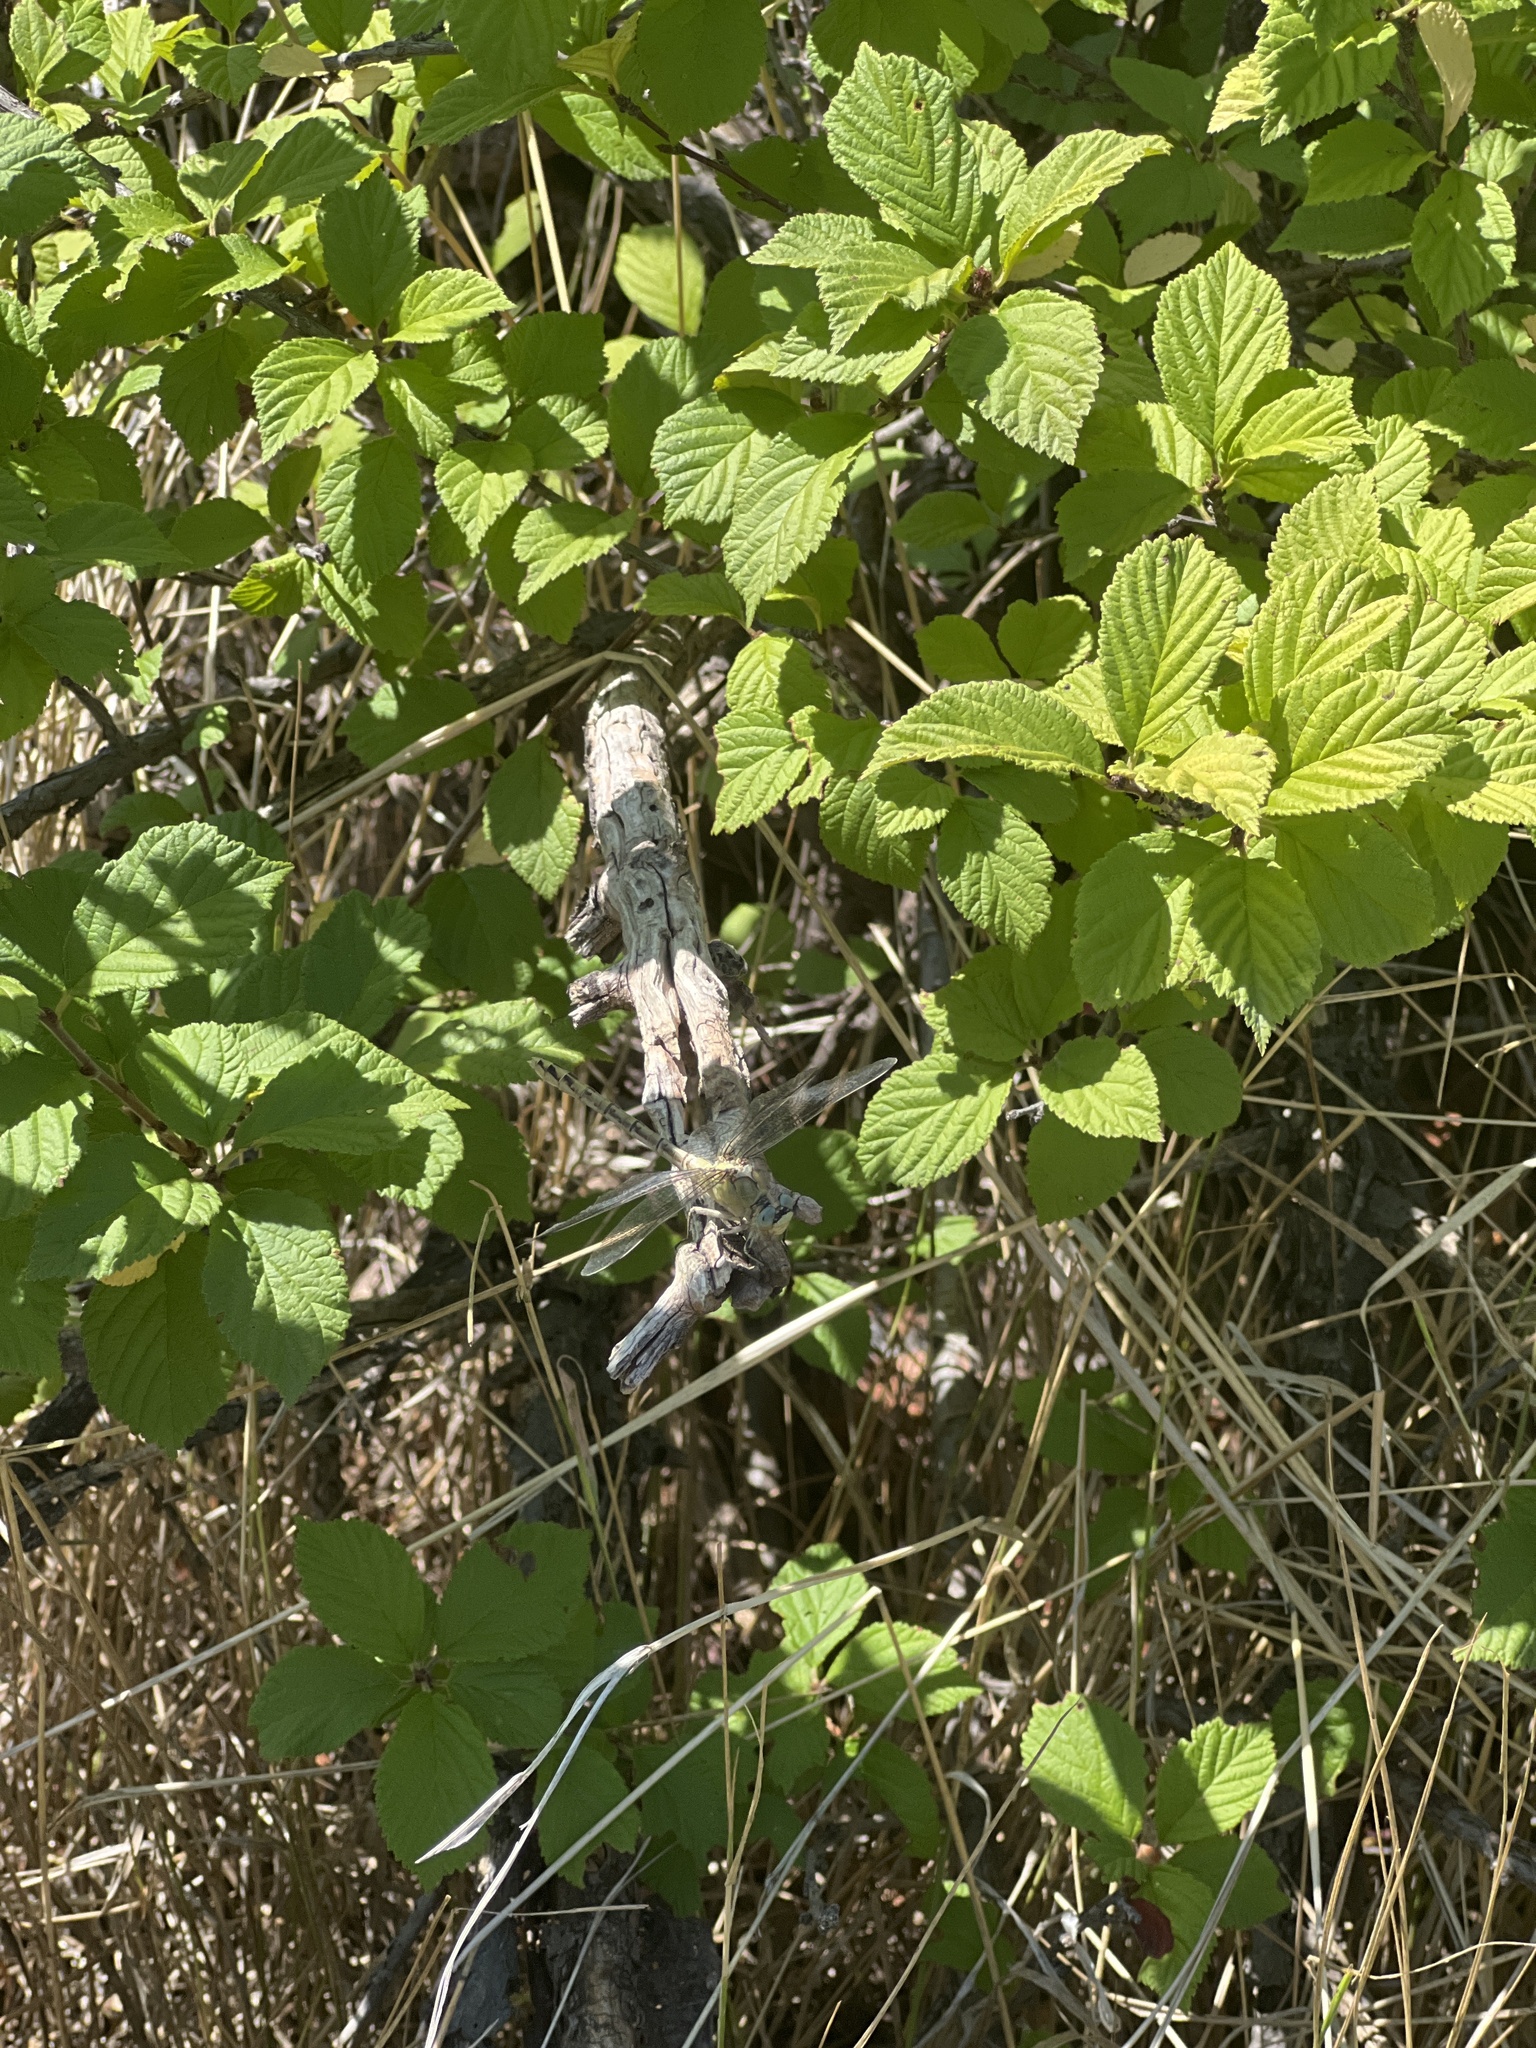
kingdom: Animalia
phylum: Arthropoda
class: Insecta
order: Odonata
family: Gomphidae
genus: Ophiogomphus
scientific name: Ophiogomphus severus
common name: Pale snaketail
